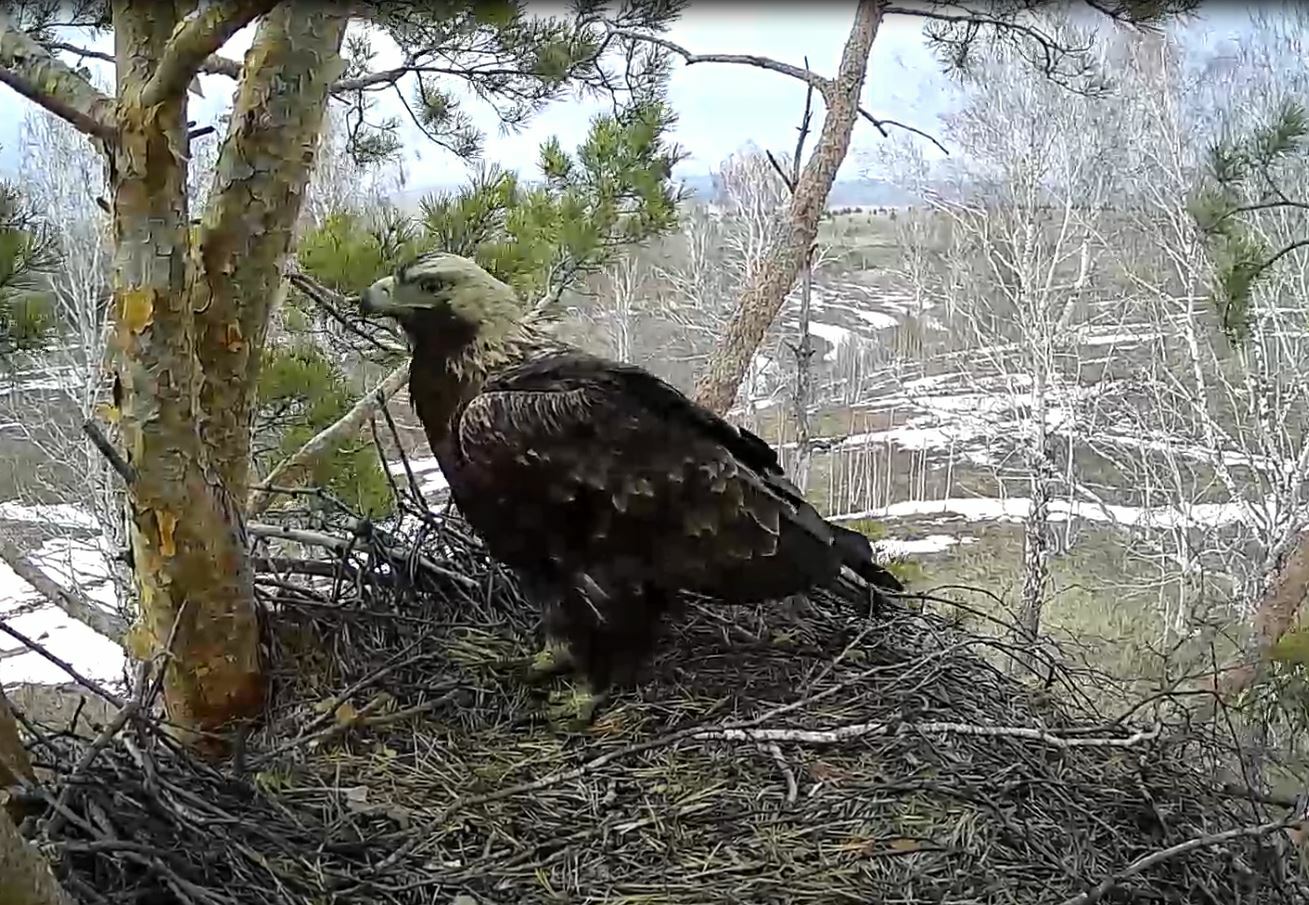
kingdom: Animalia
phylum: Chordata
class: Aves
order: Accipitriformes
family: Accipitridae
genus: Aquila
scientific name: Aquila heliaca
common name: Eastern imperial eagle
